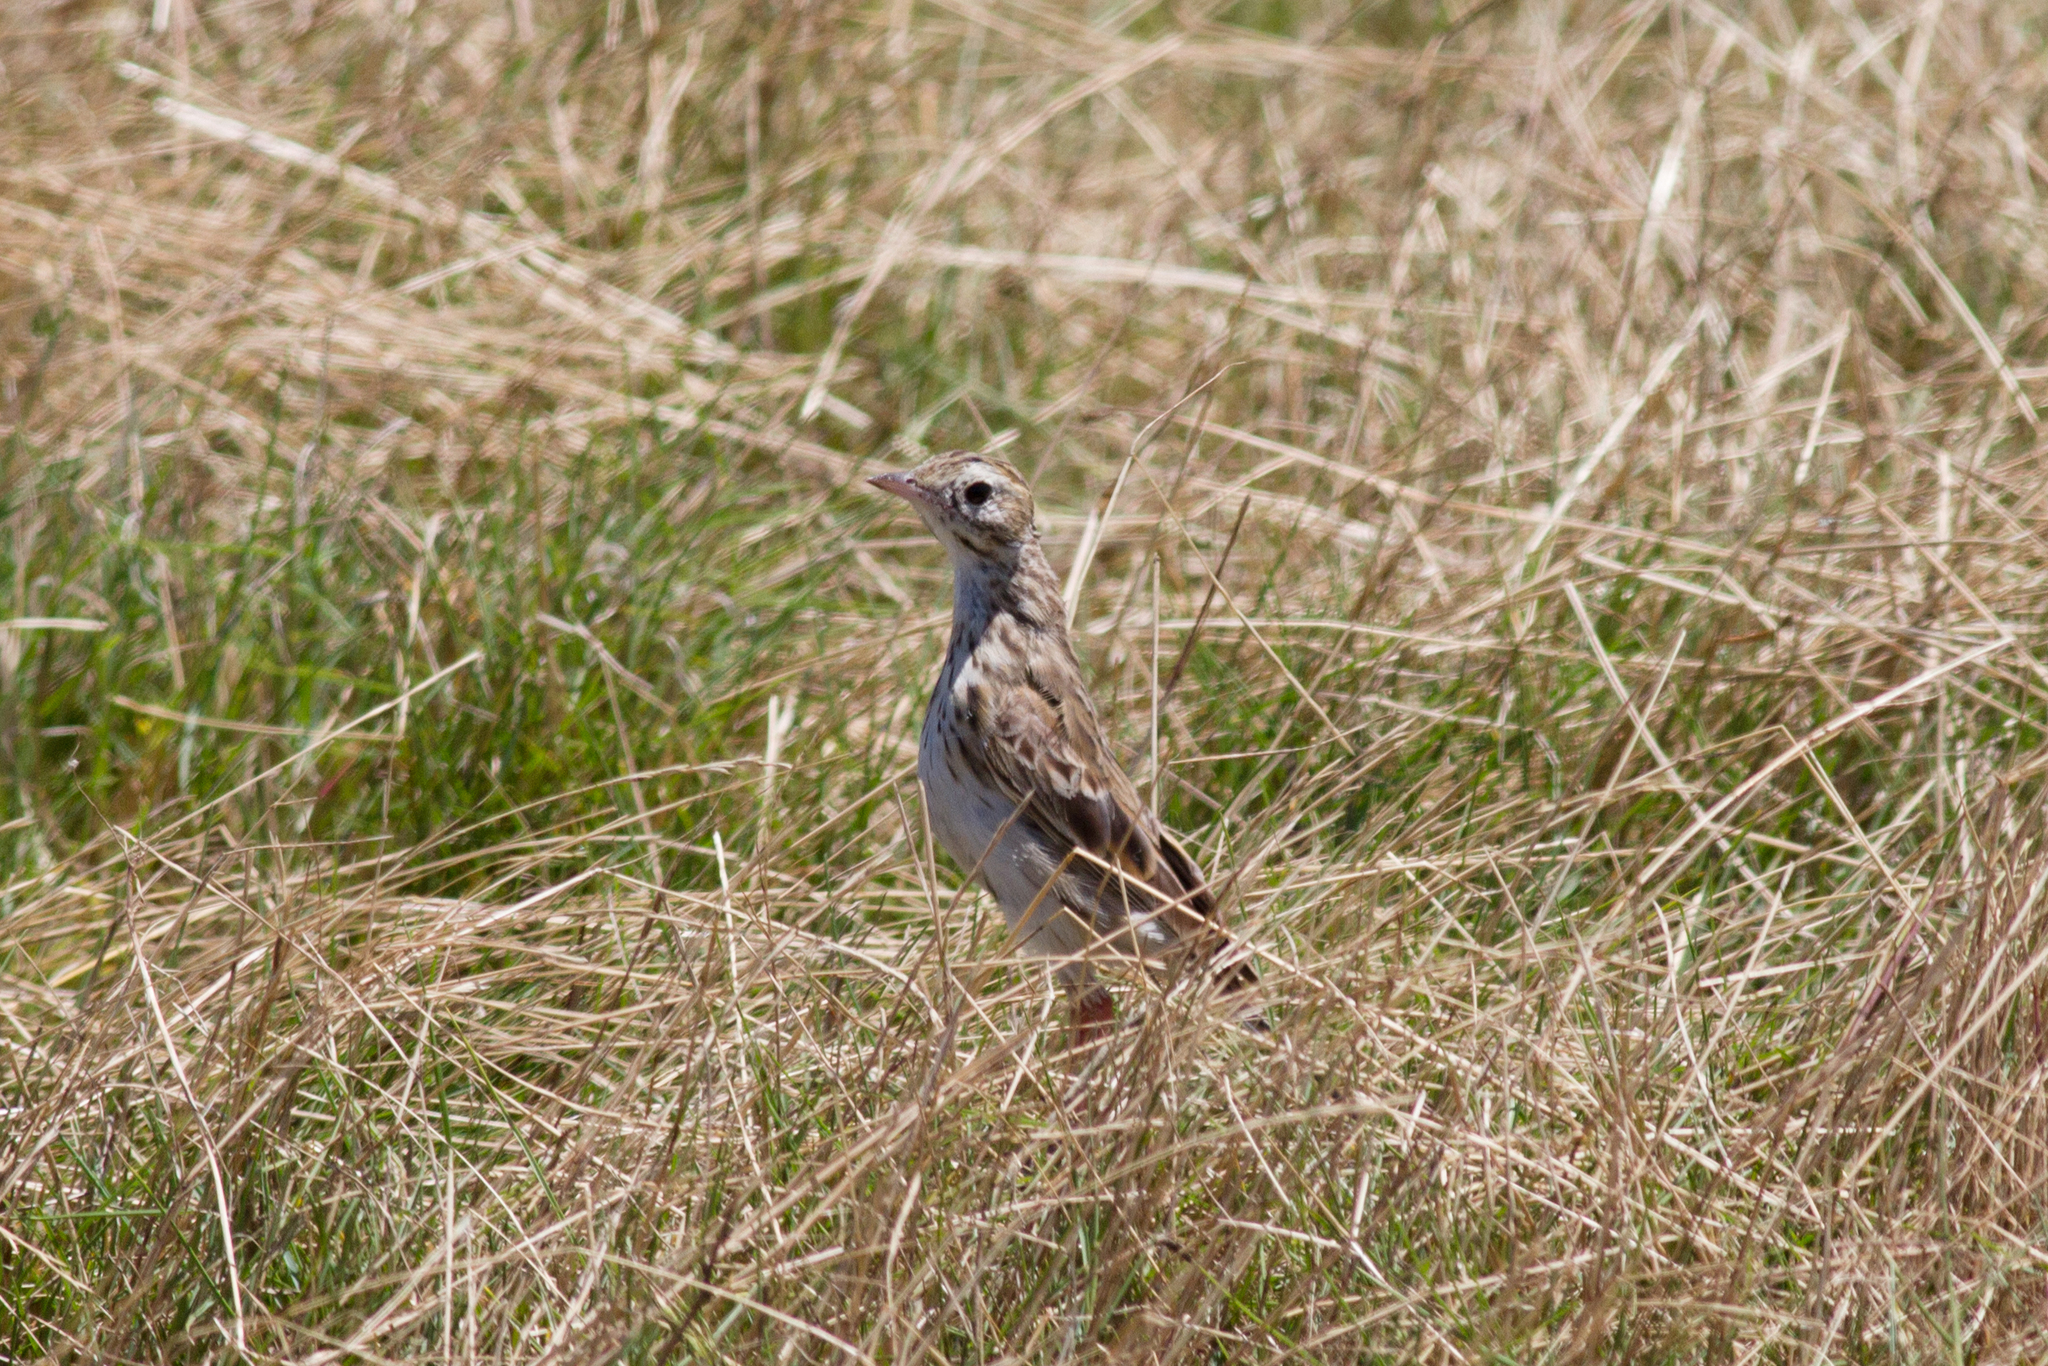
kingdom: Animalia
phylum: Chordata
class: Aves
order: Passeriformes
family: Motacillidae
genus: Anthus
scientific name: Anthus australis
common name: Australian pipit
